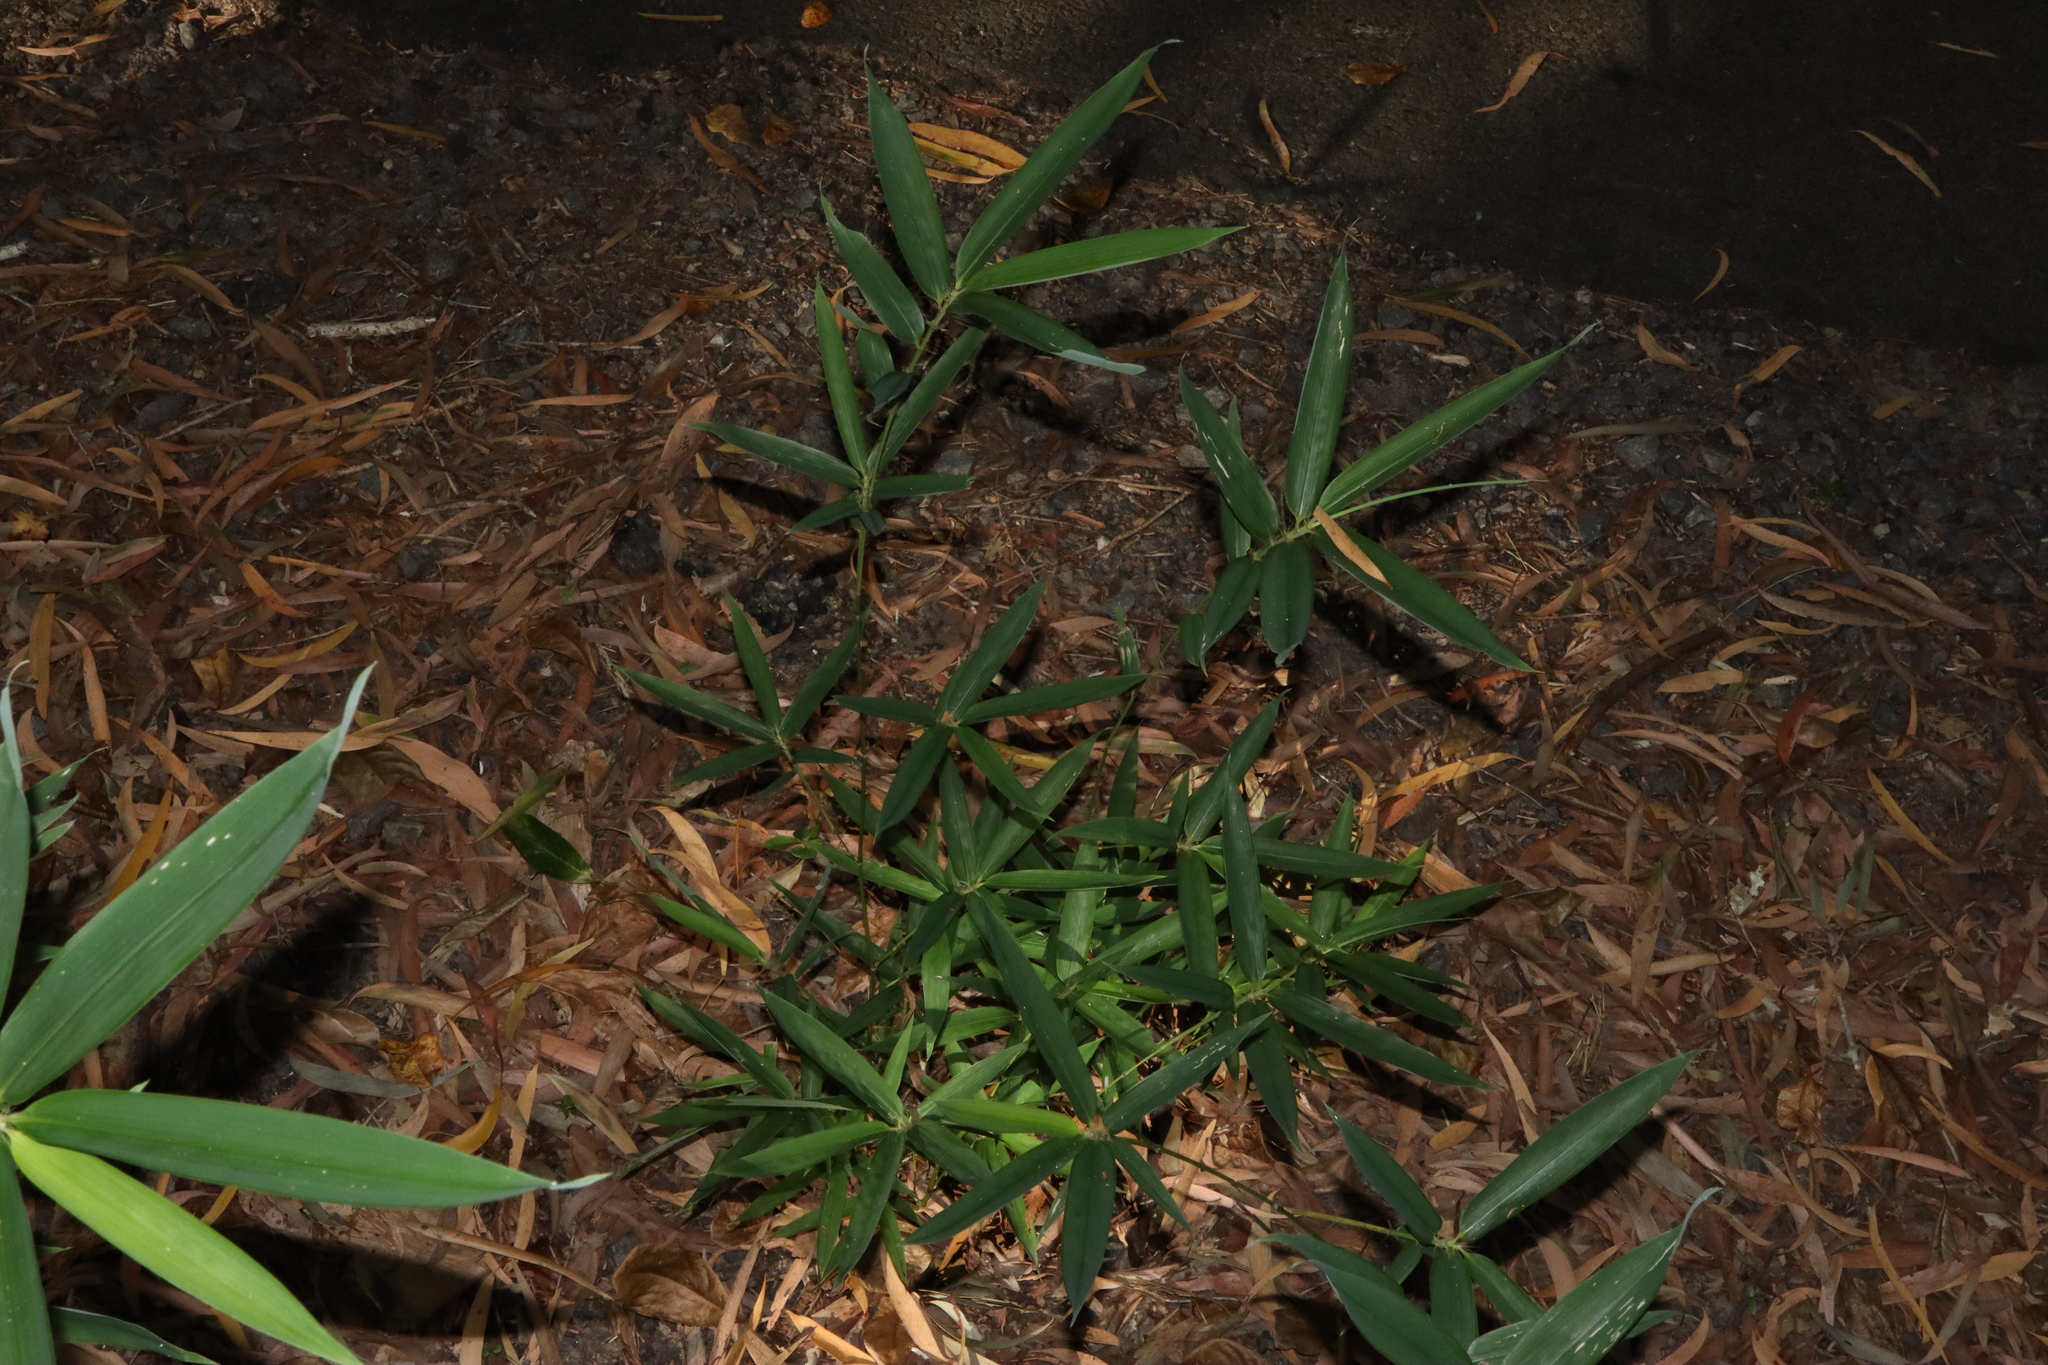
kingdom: Plantae
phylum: Tracheophyta
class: Liliopsida
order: Poales
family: Poaceae
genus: Phyllostachys
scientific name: Phyllostachys aurea
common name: Golden bamboo
